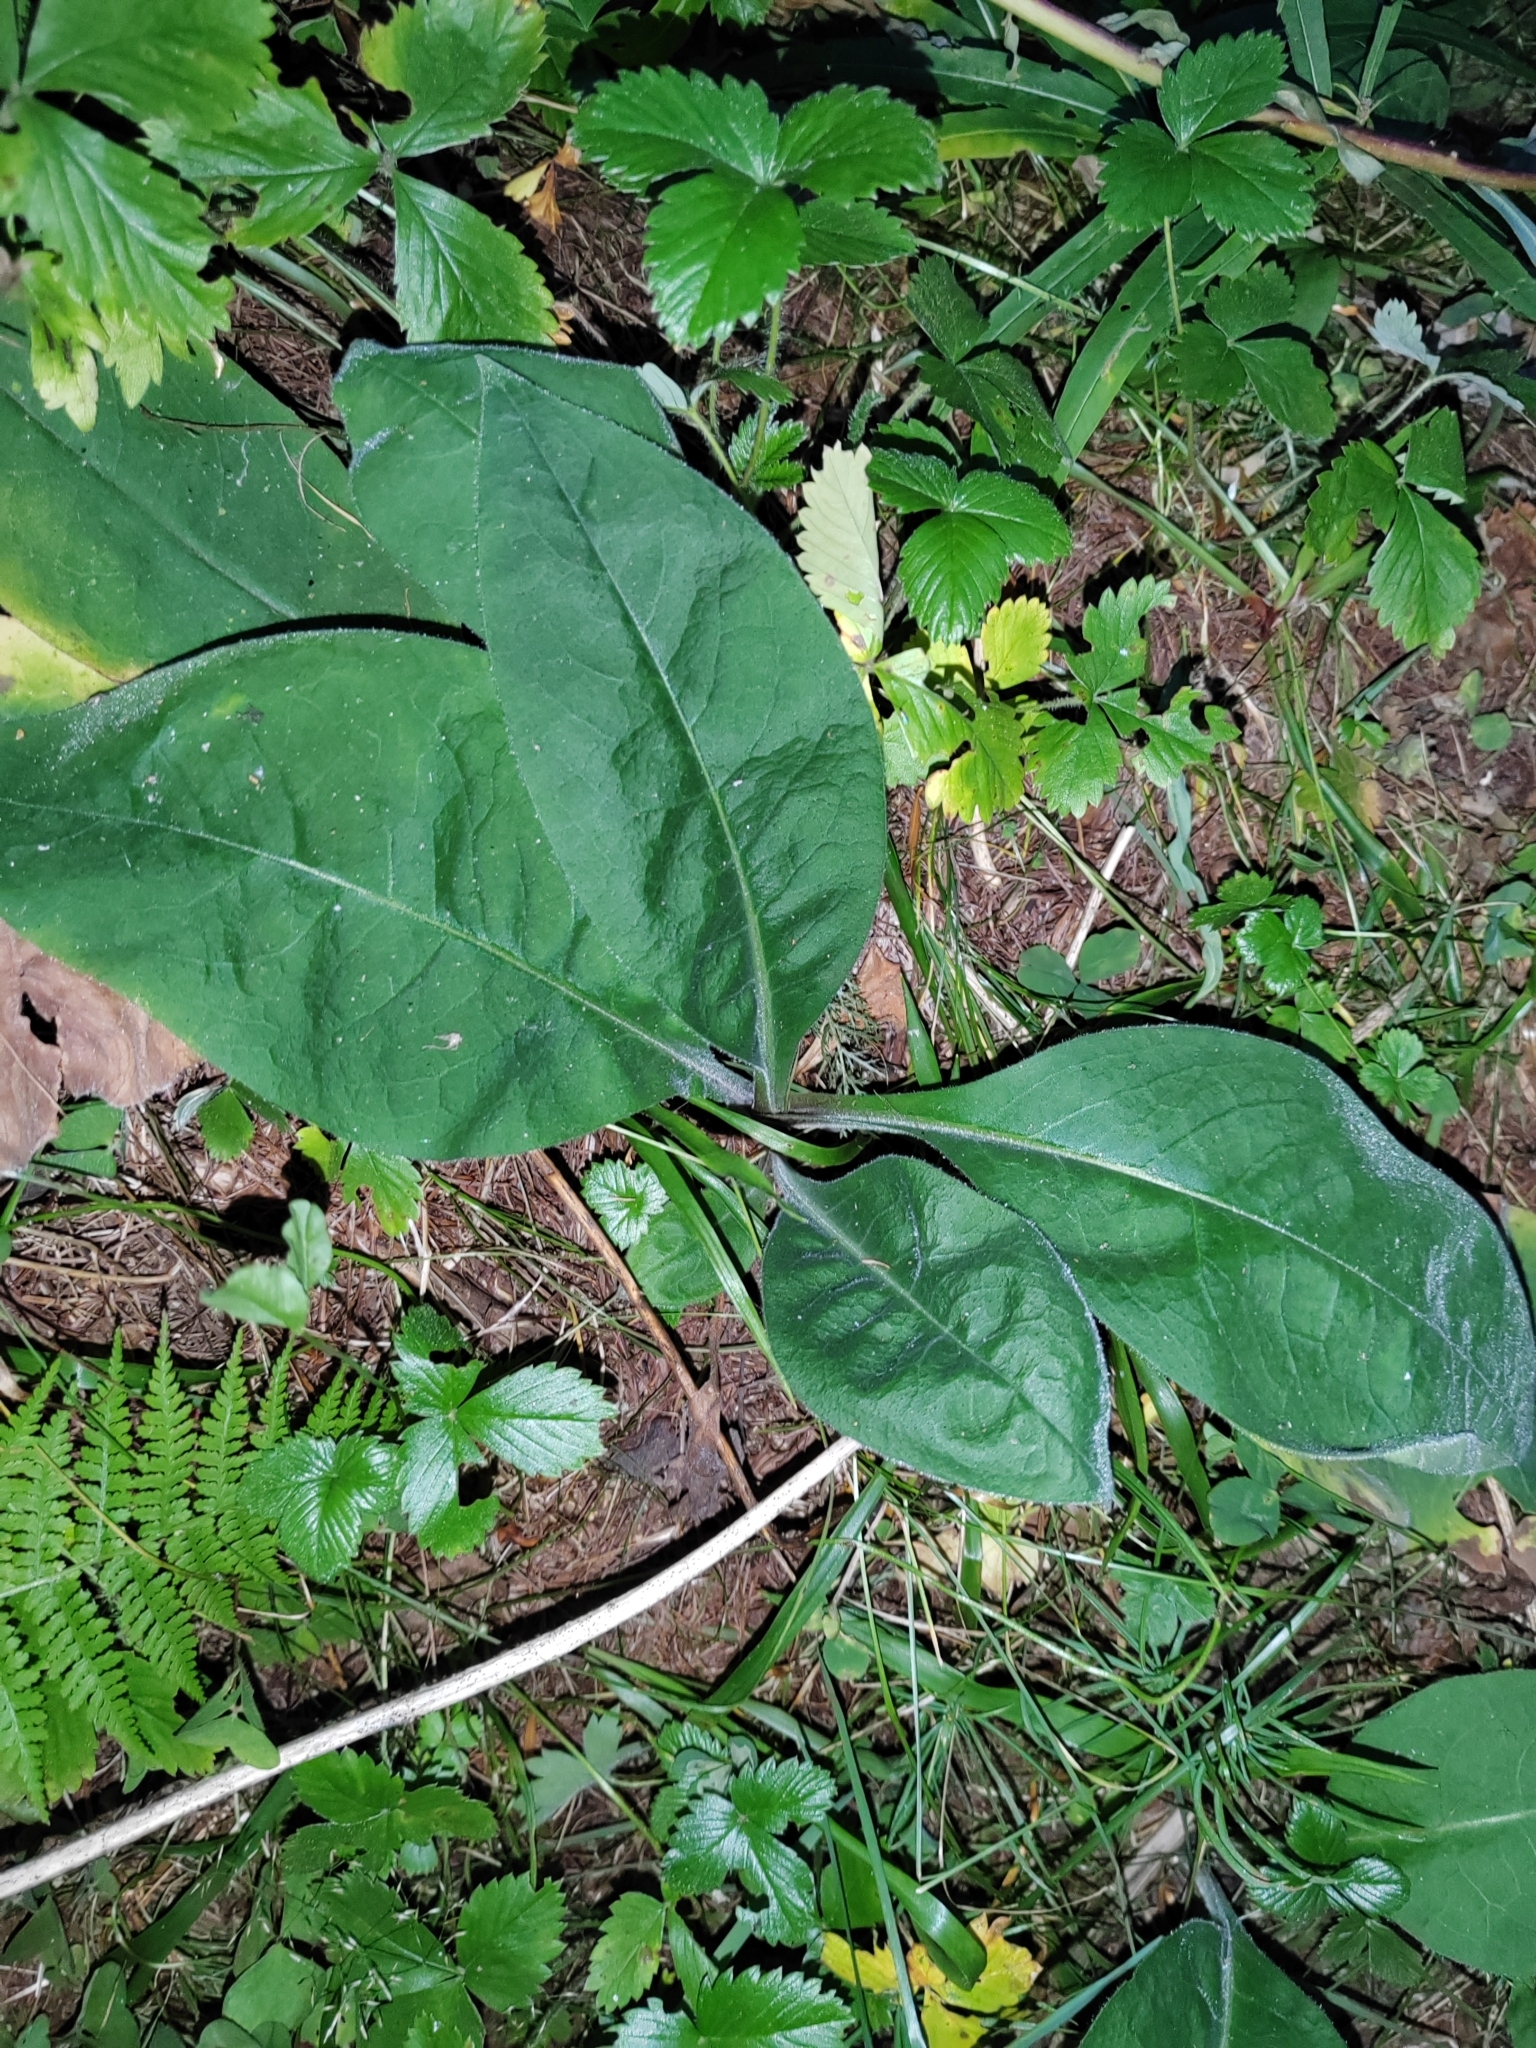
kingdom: Plantae
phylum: Tracheophyta
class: Magnoliopsida
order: Boraginales
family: Boraginaceae
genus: Pulmonaria
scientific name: Pulmonaria mollis
